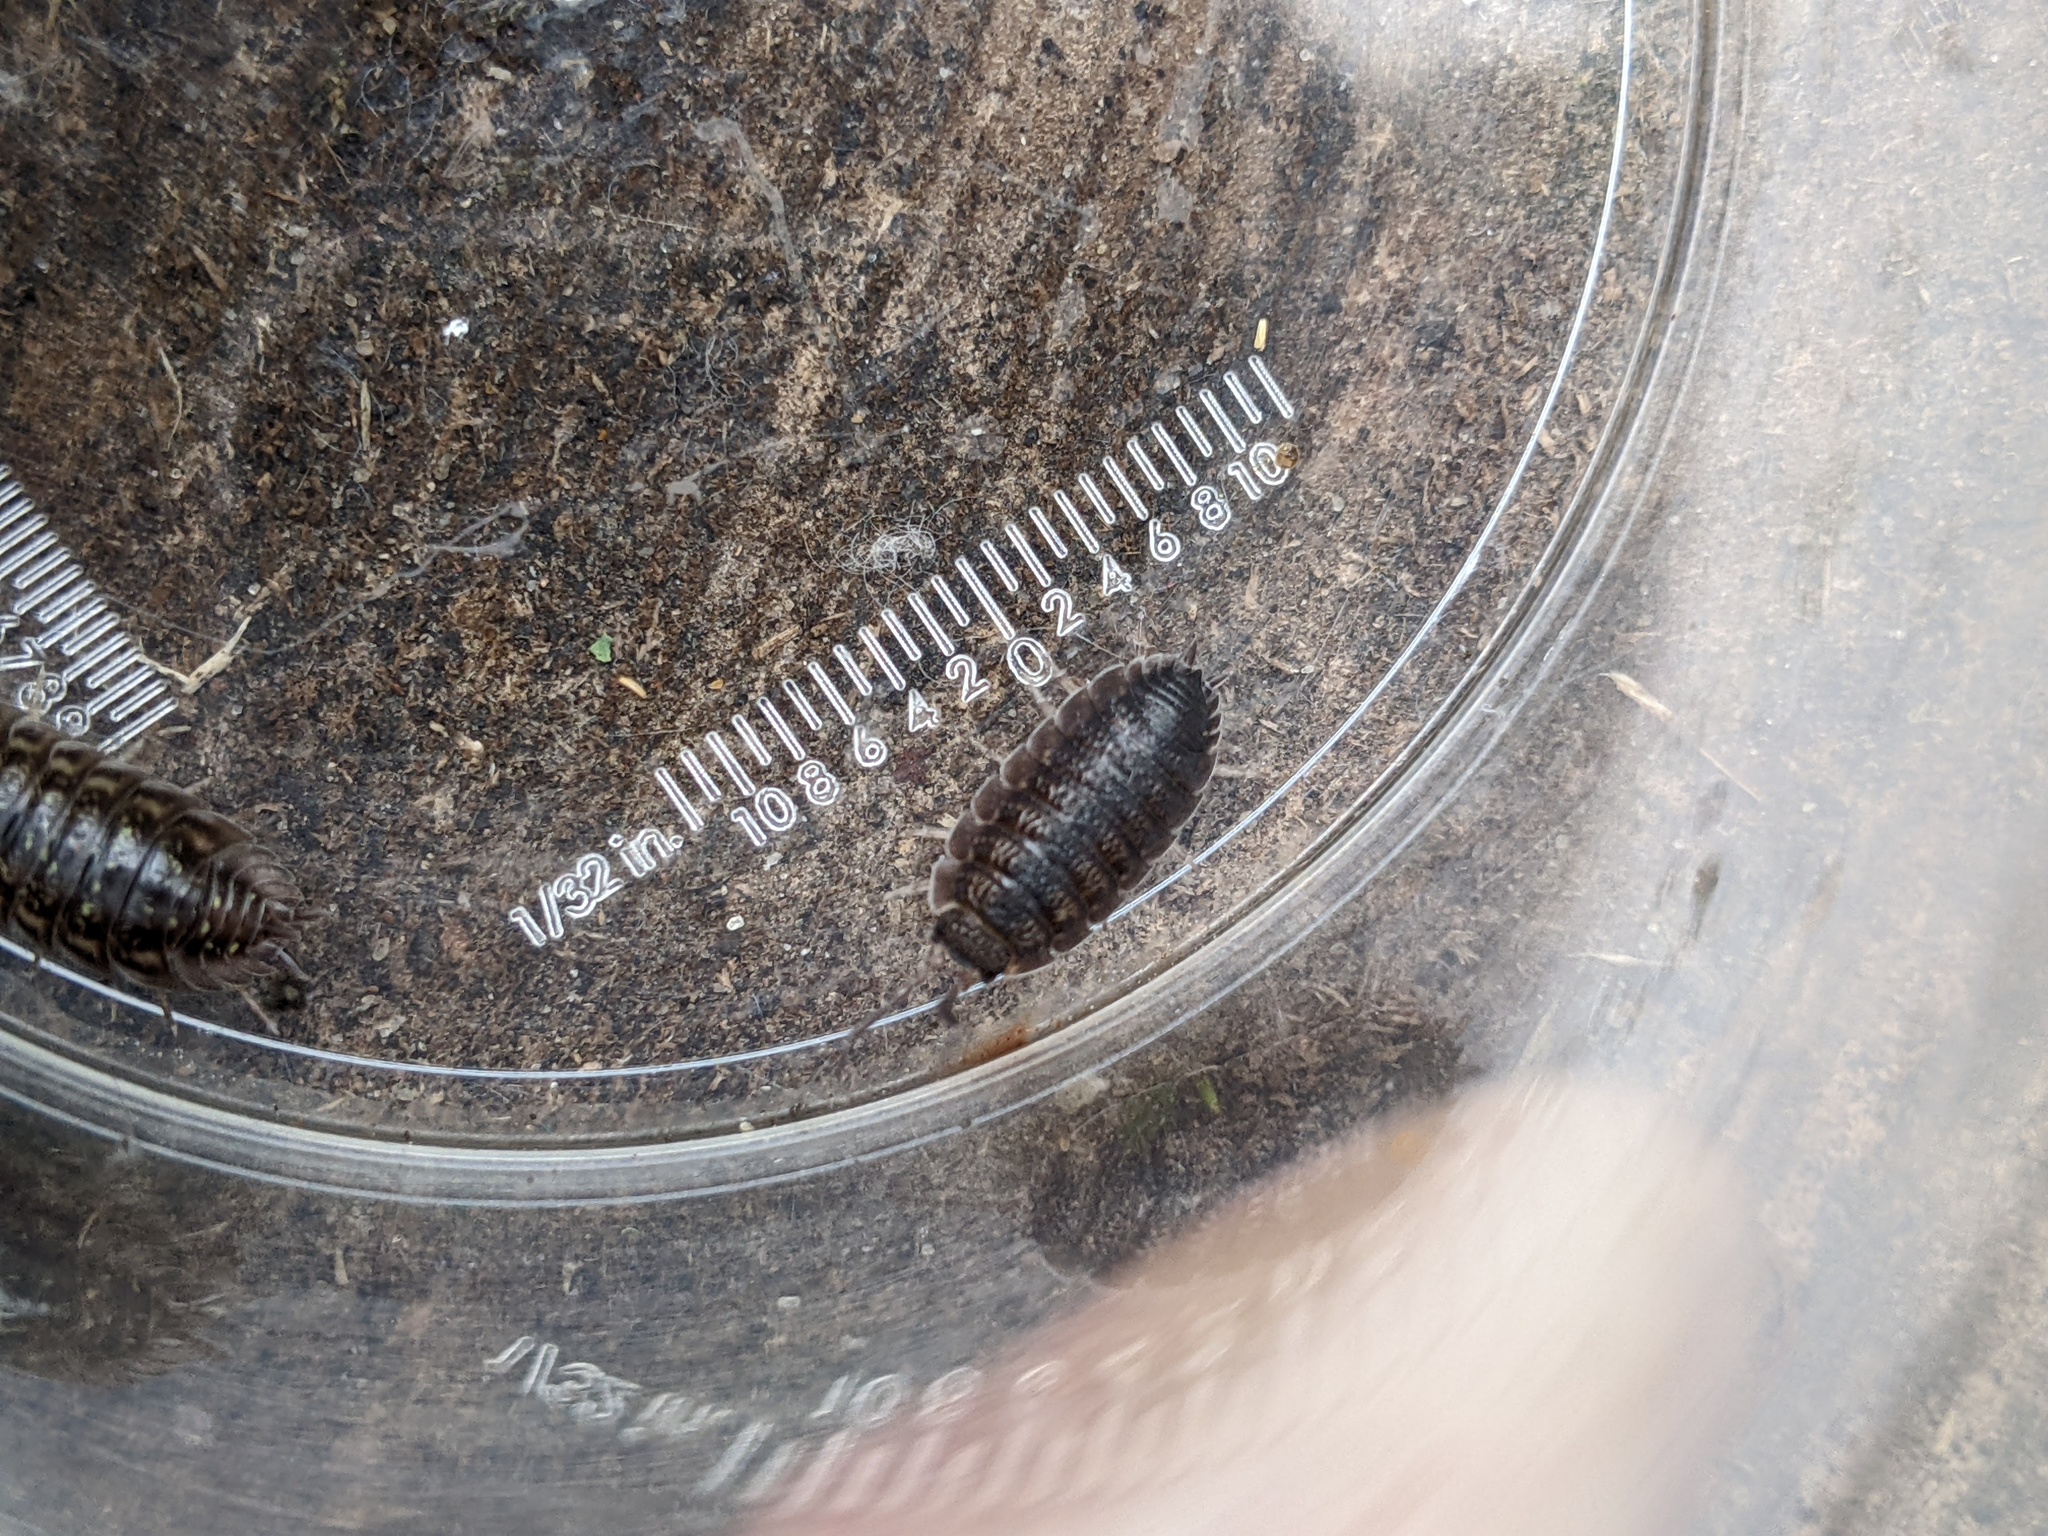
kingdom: Animalia
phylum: Arthropoda
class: Malacostraca
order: Isopoda
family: Porcellionidae
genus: Porcellio
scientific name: Porcellio scaber
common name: Common rough woodlouse
